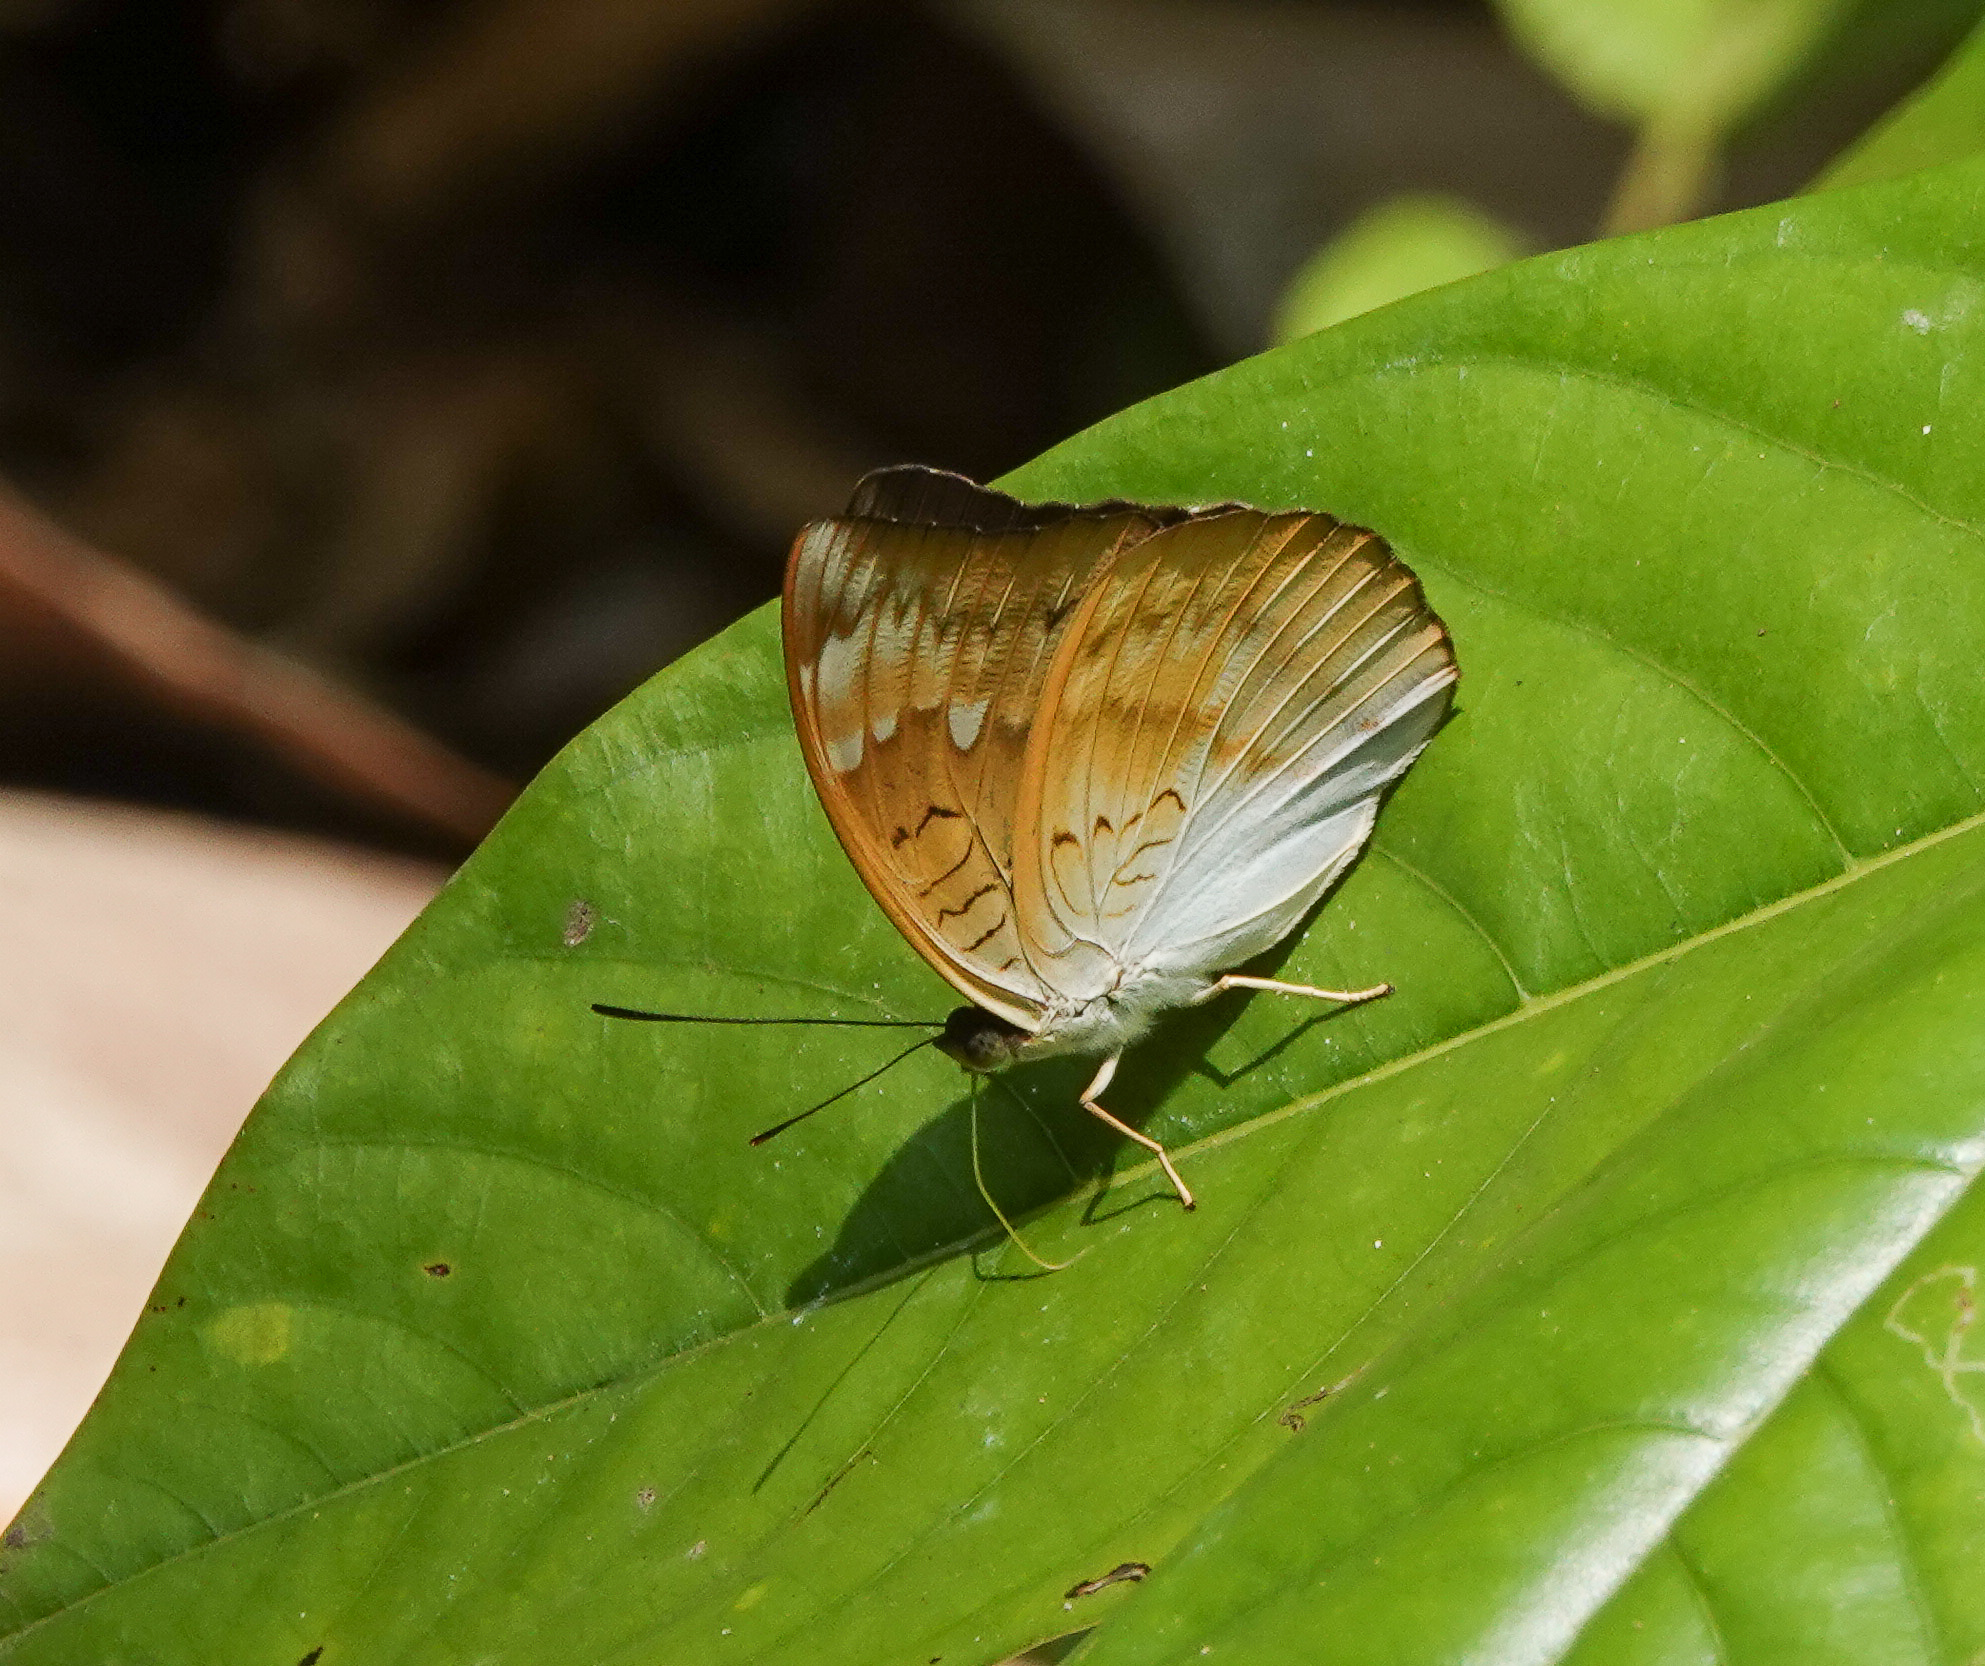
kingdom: Animalia
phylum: Arthropoda
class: Insecta
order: Lepidoptera
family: Nymphalidae
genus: Euthalia
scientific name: Euthalia aconthea
